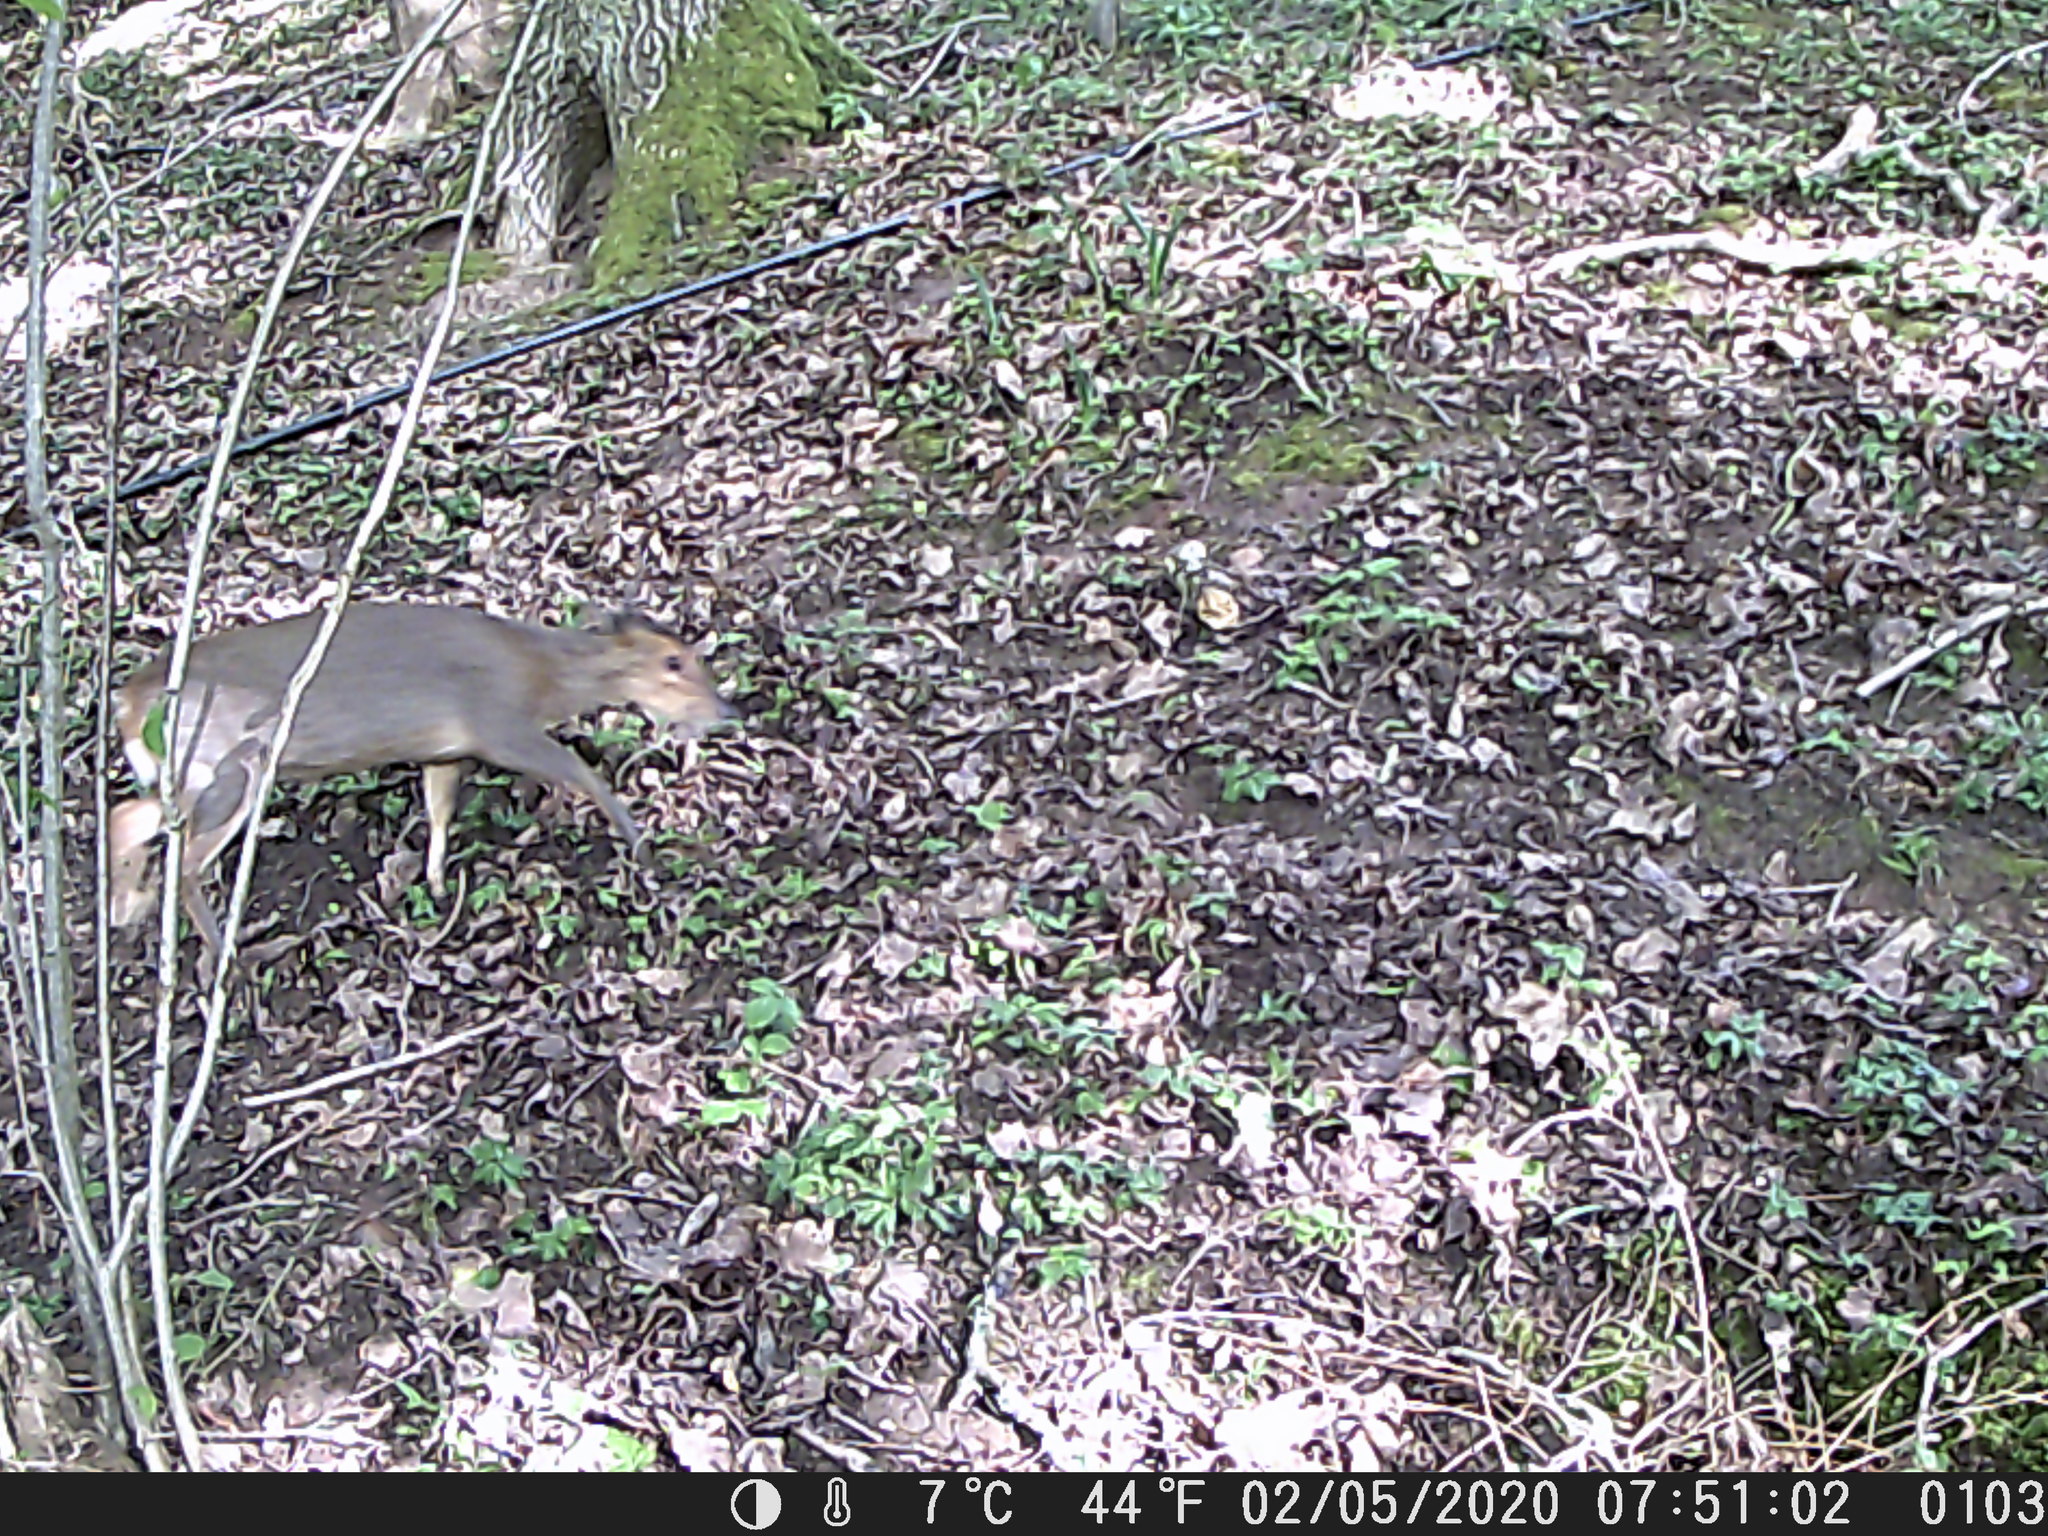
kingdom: Animalia
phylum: Chordata
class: Mammalia
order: Artiodactyla
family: Cervidae
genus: Muntiacus
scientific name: Muntiacus reevesi
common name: Reeves' muntjac
